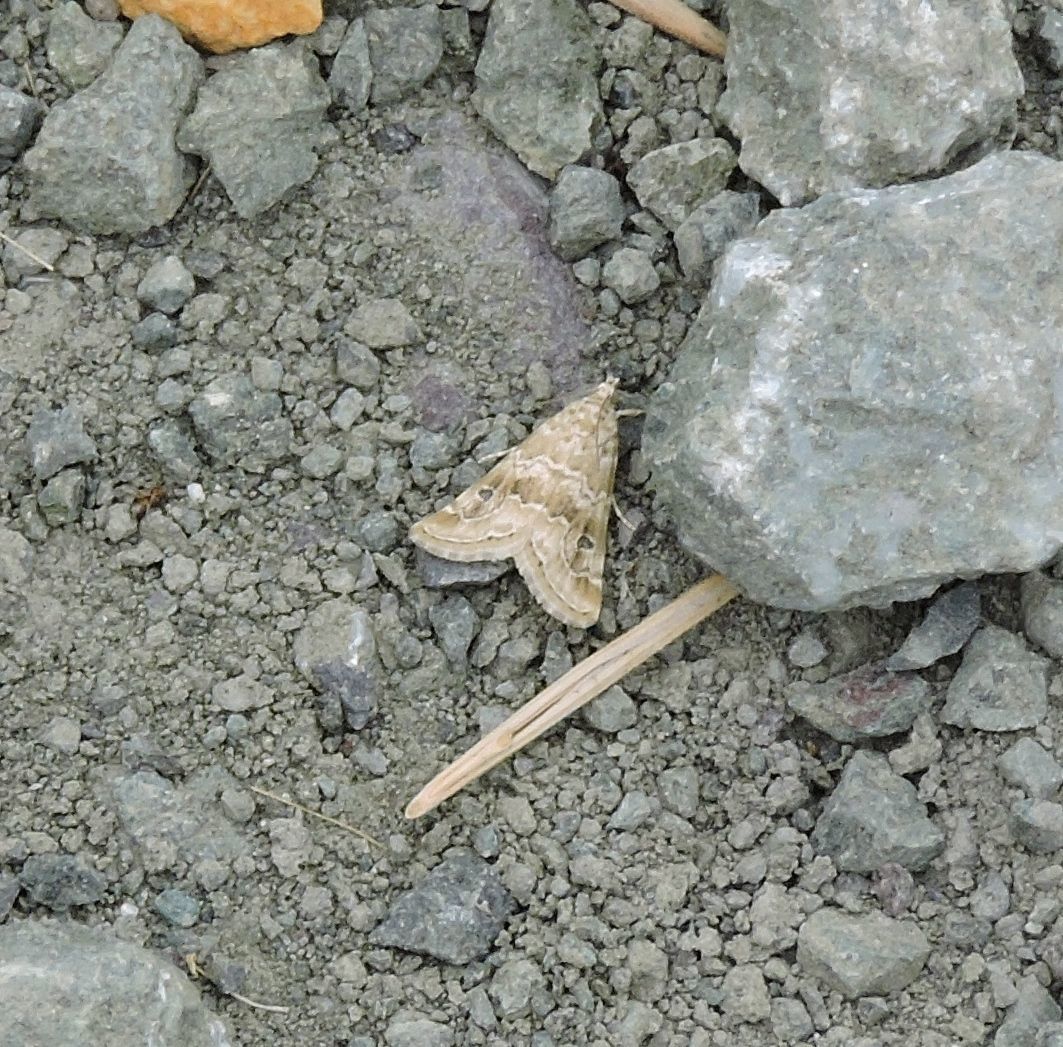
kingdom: Animalia
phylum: Arthropoda
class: Insecta
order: Lepidoptera
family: Crambidae
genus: Hellula
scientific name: Hellula rogatalis
